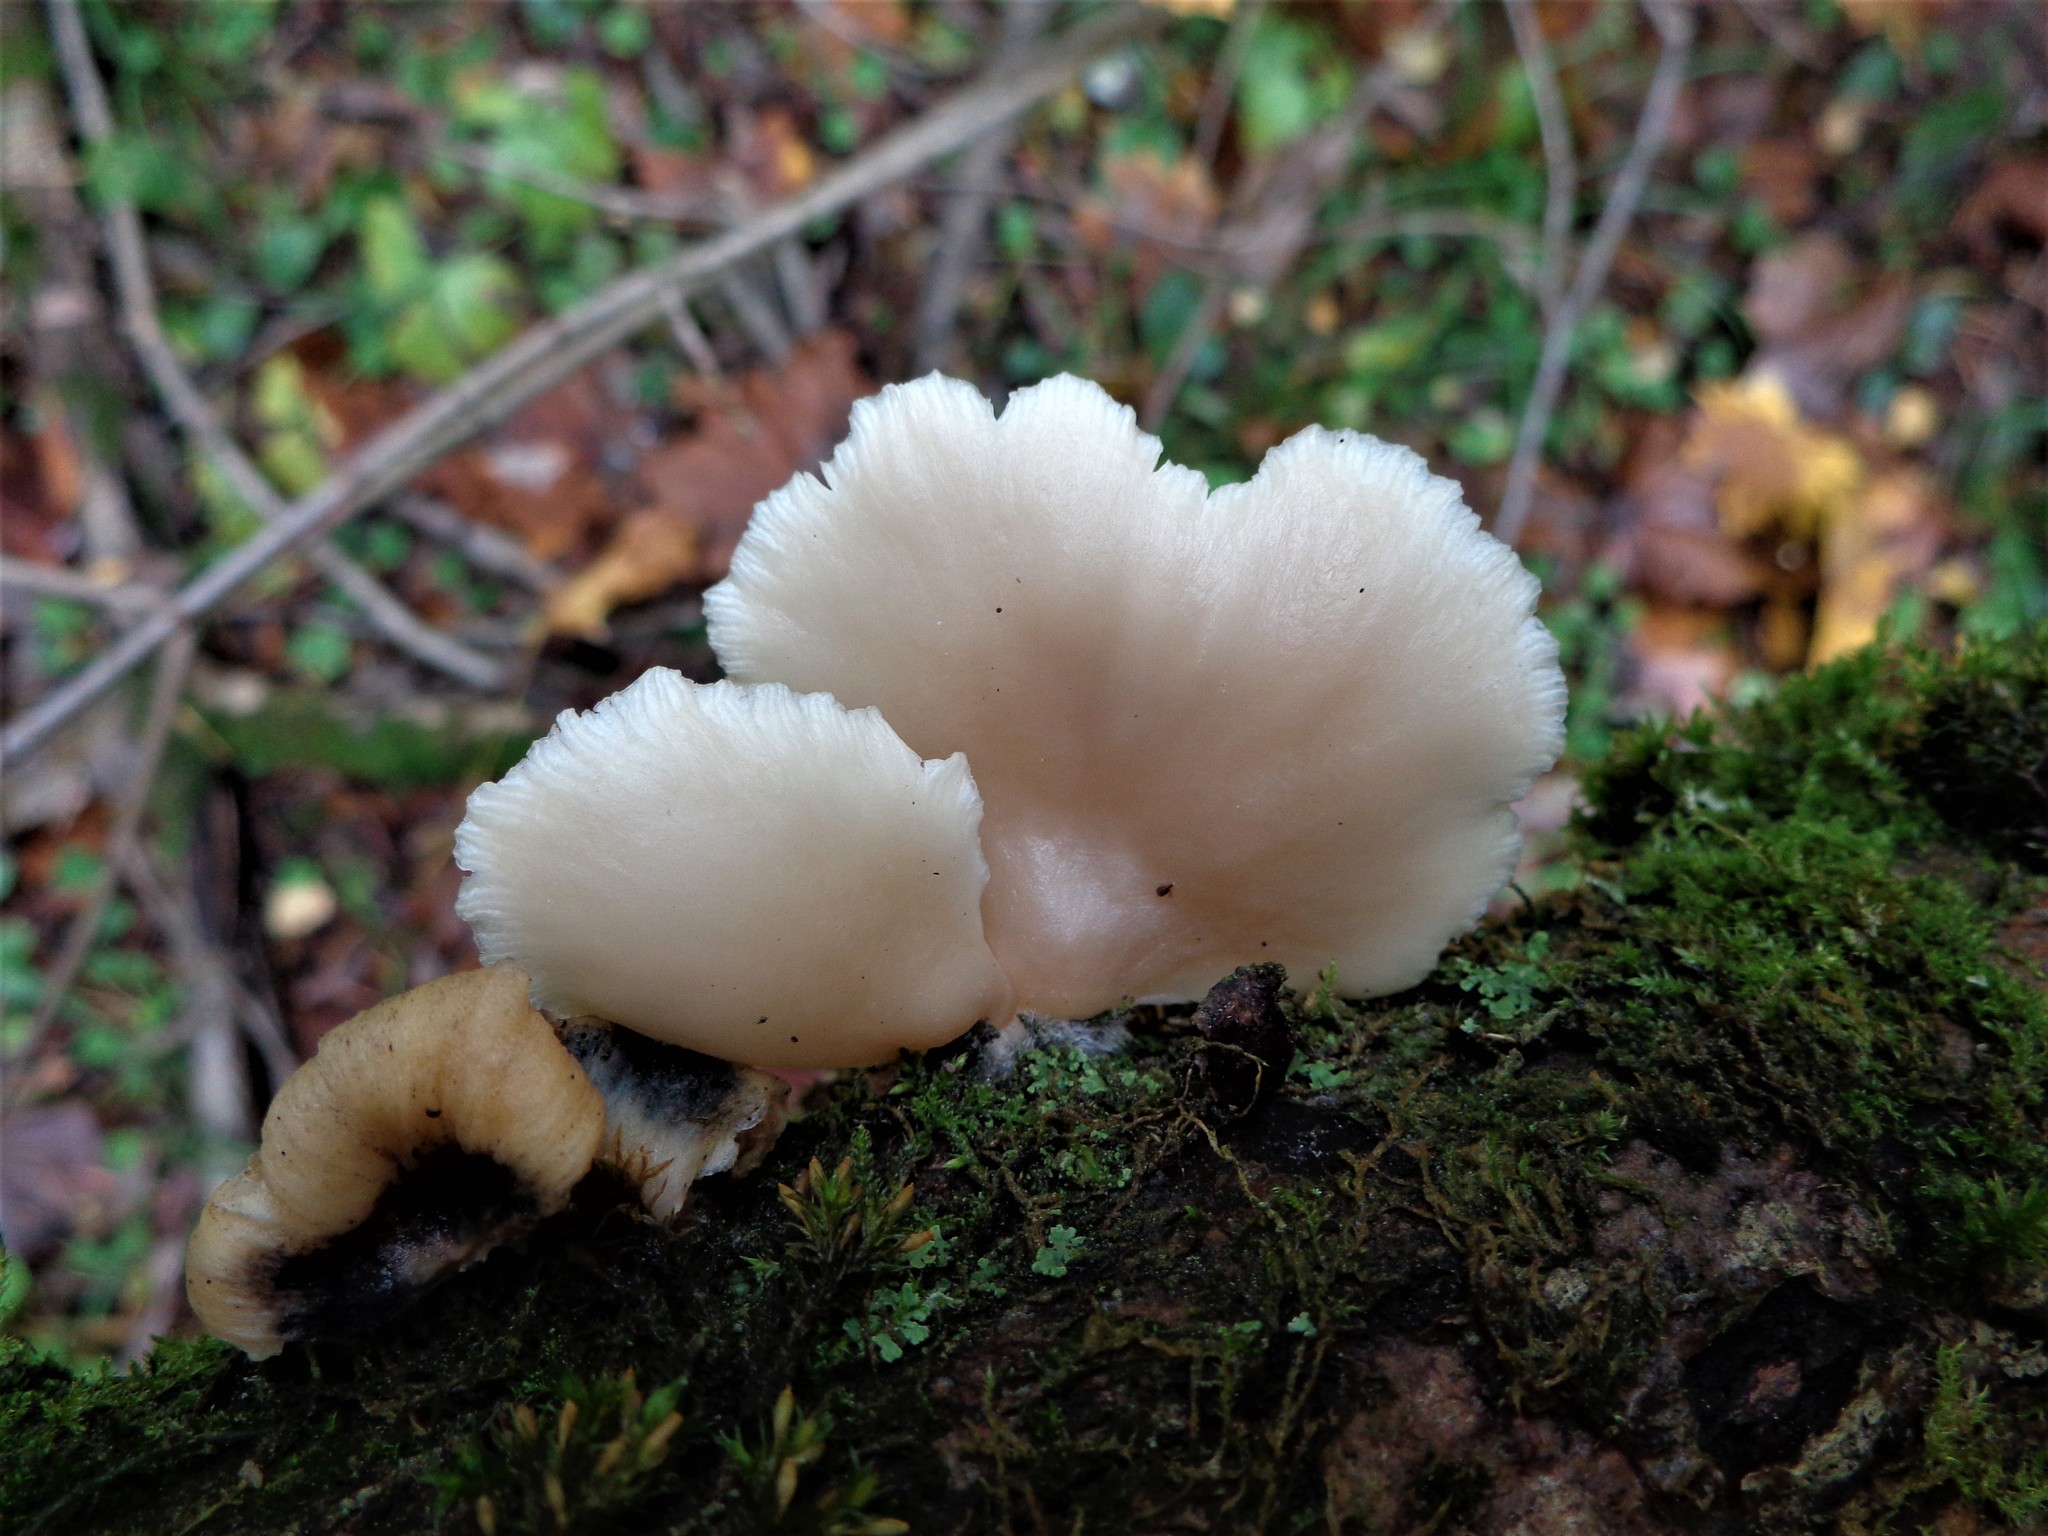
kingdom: Fungi
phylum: Basidiomycota
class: Agaricomycetes
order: Agaricales
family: Pleurotaceae
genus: Pleurotus
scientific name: Pleurotus pulmonarius
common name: Pale oyster
